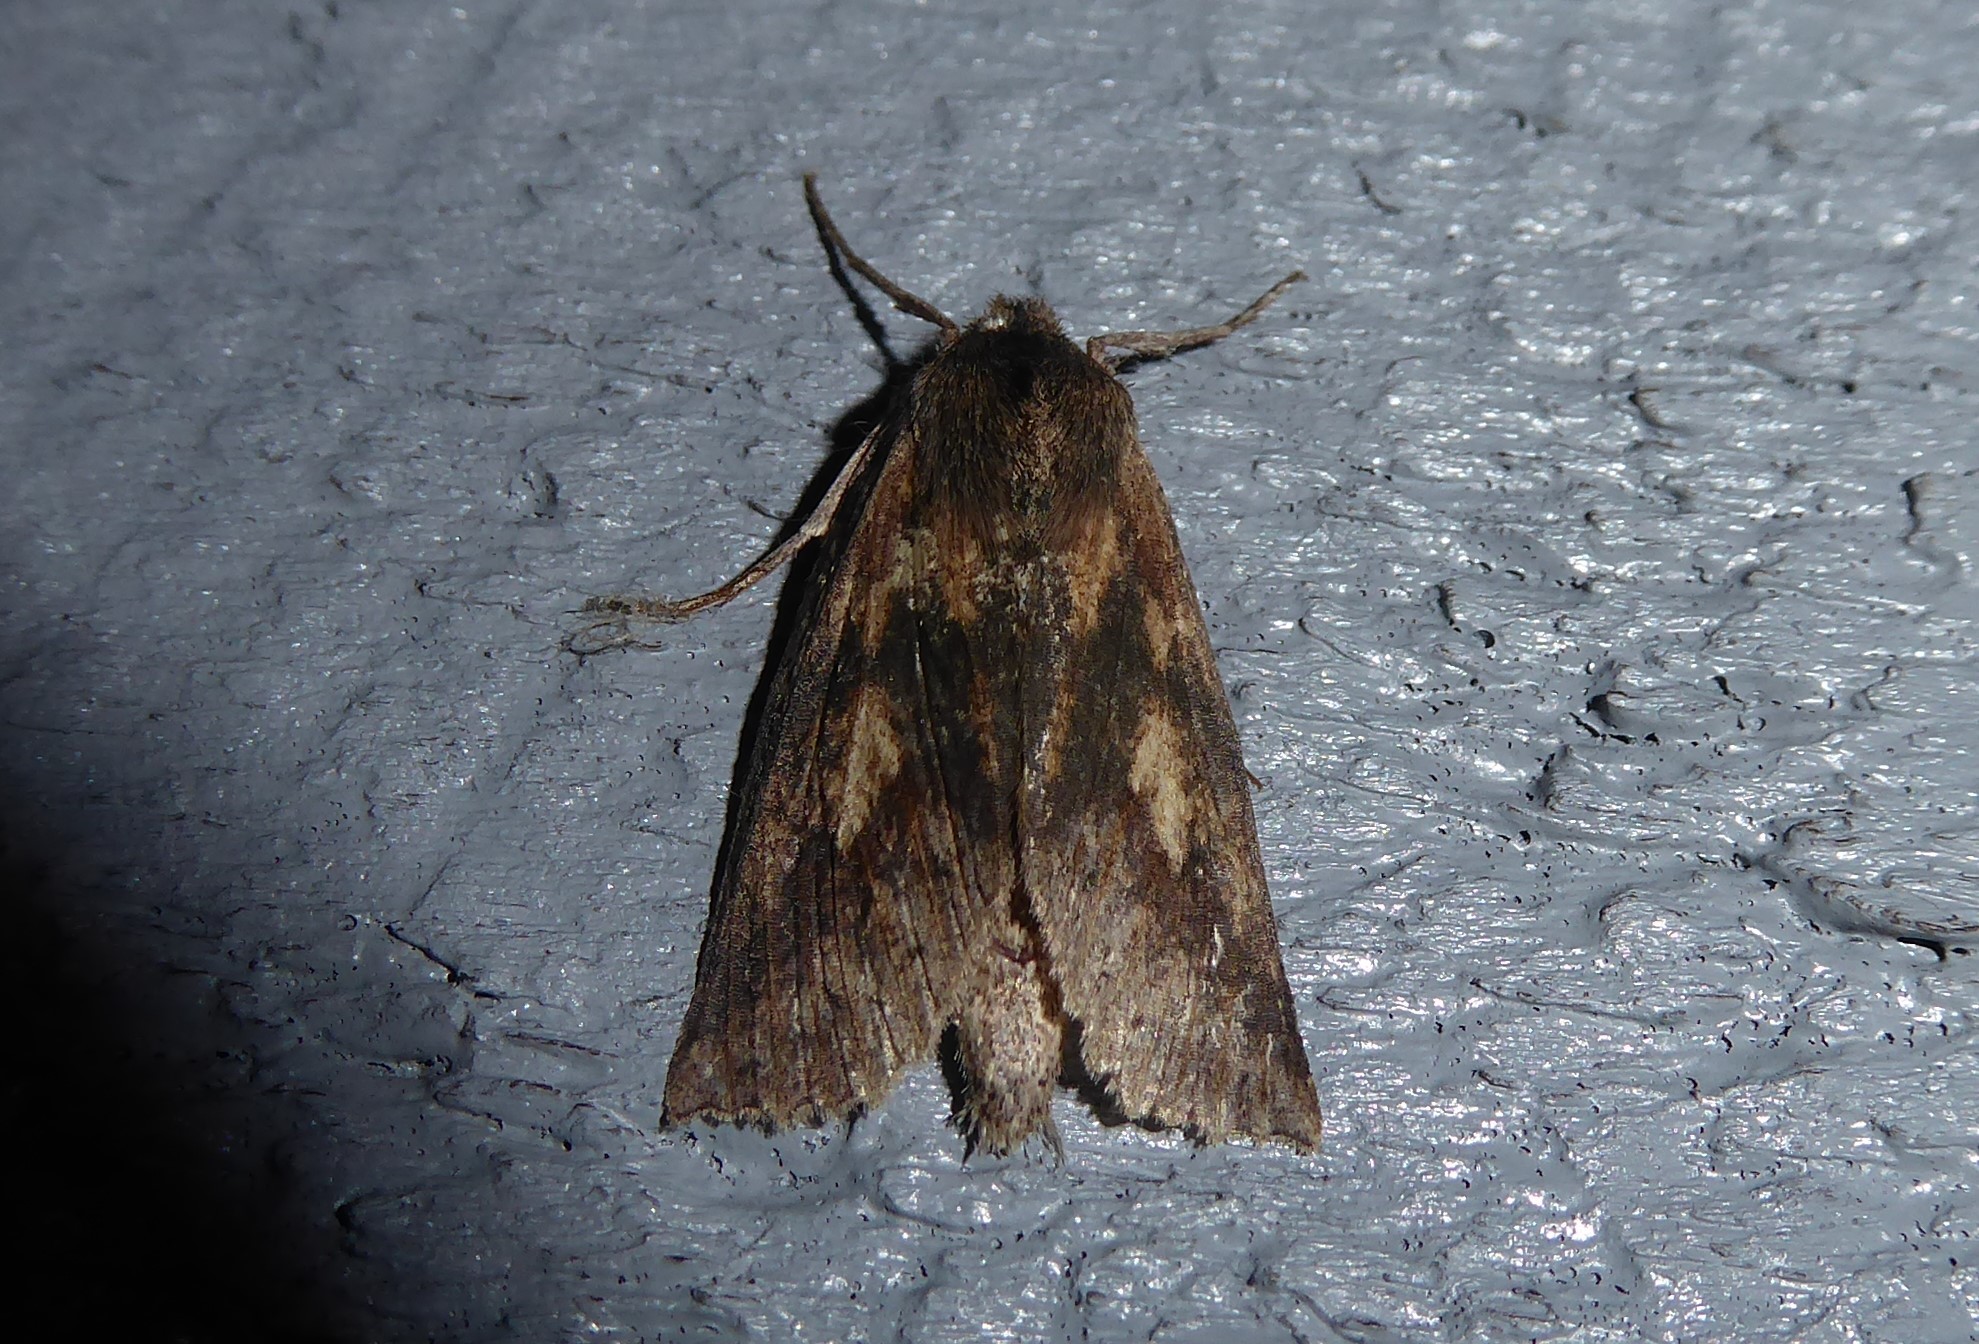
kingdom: Animalia
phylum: Arthropoda
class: Insecta
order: Lepidoptera
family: Geometridae
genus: Declana
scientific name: Declana leptomera
